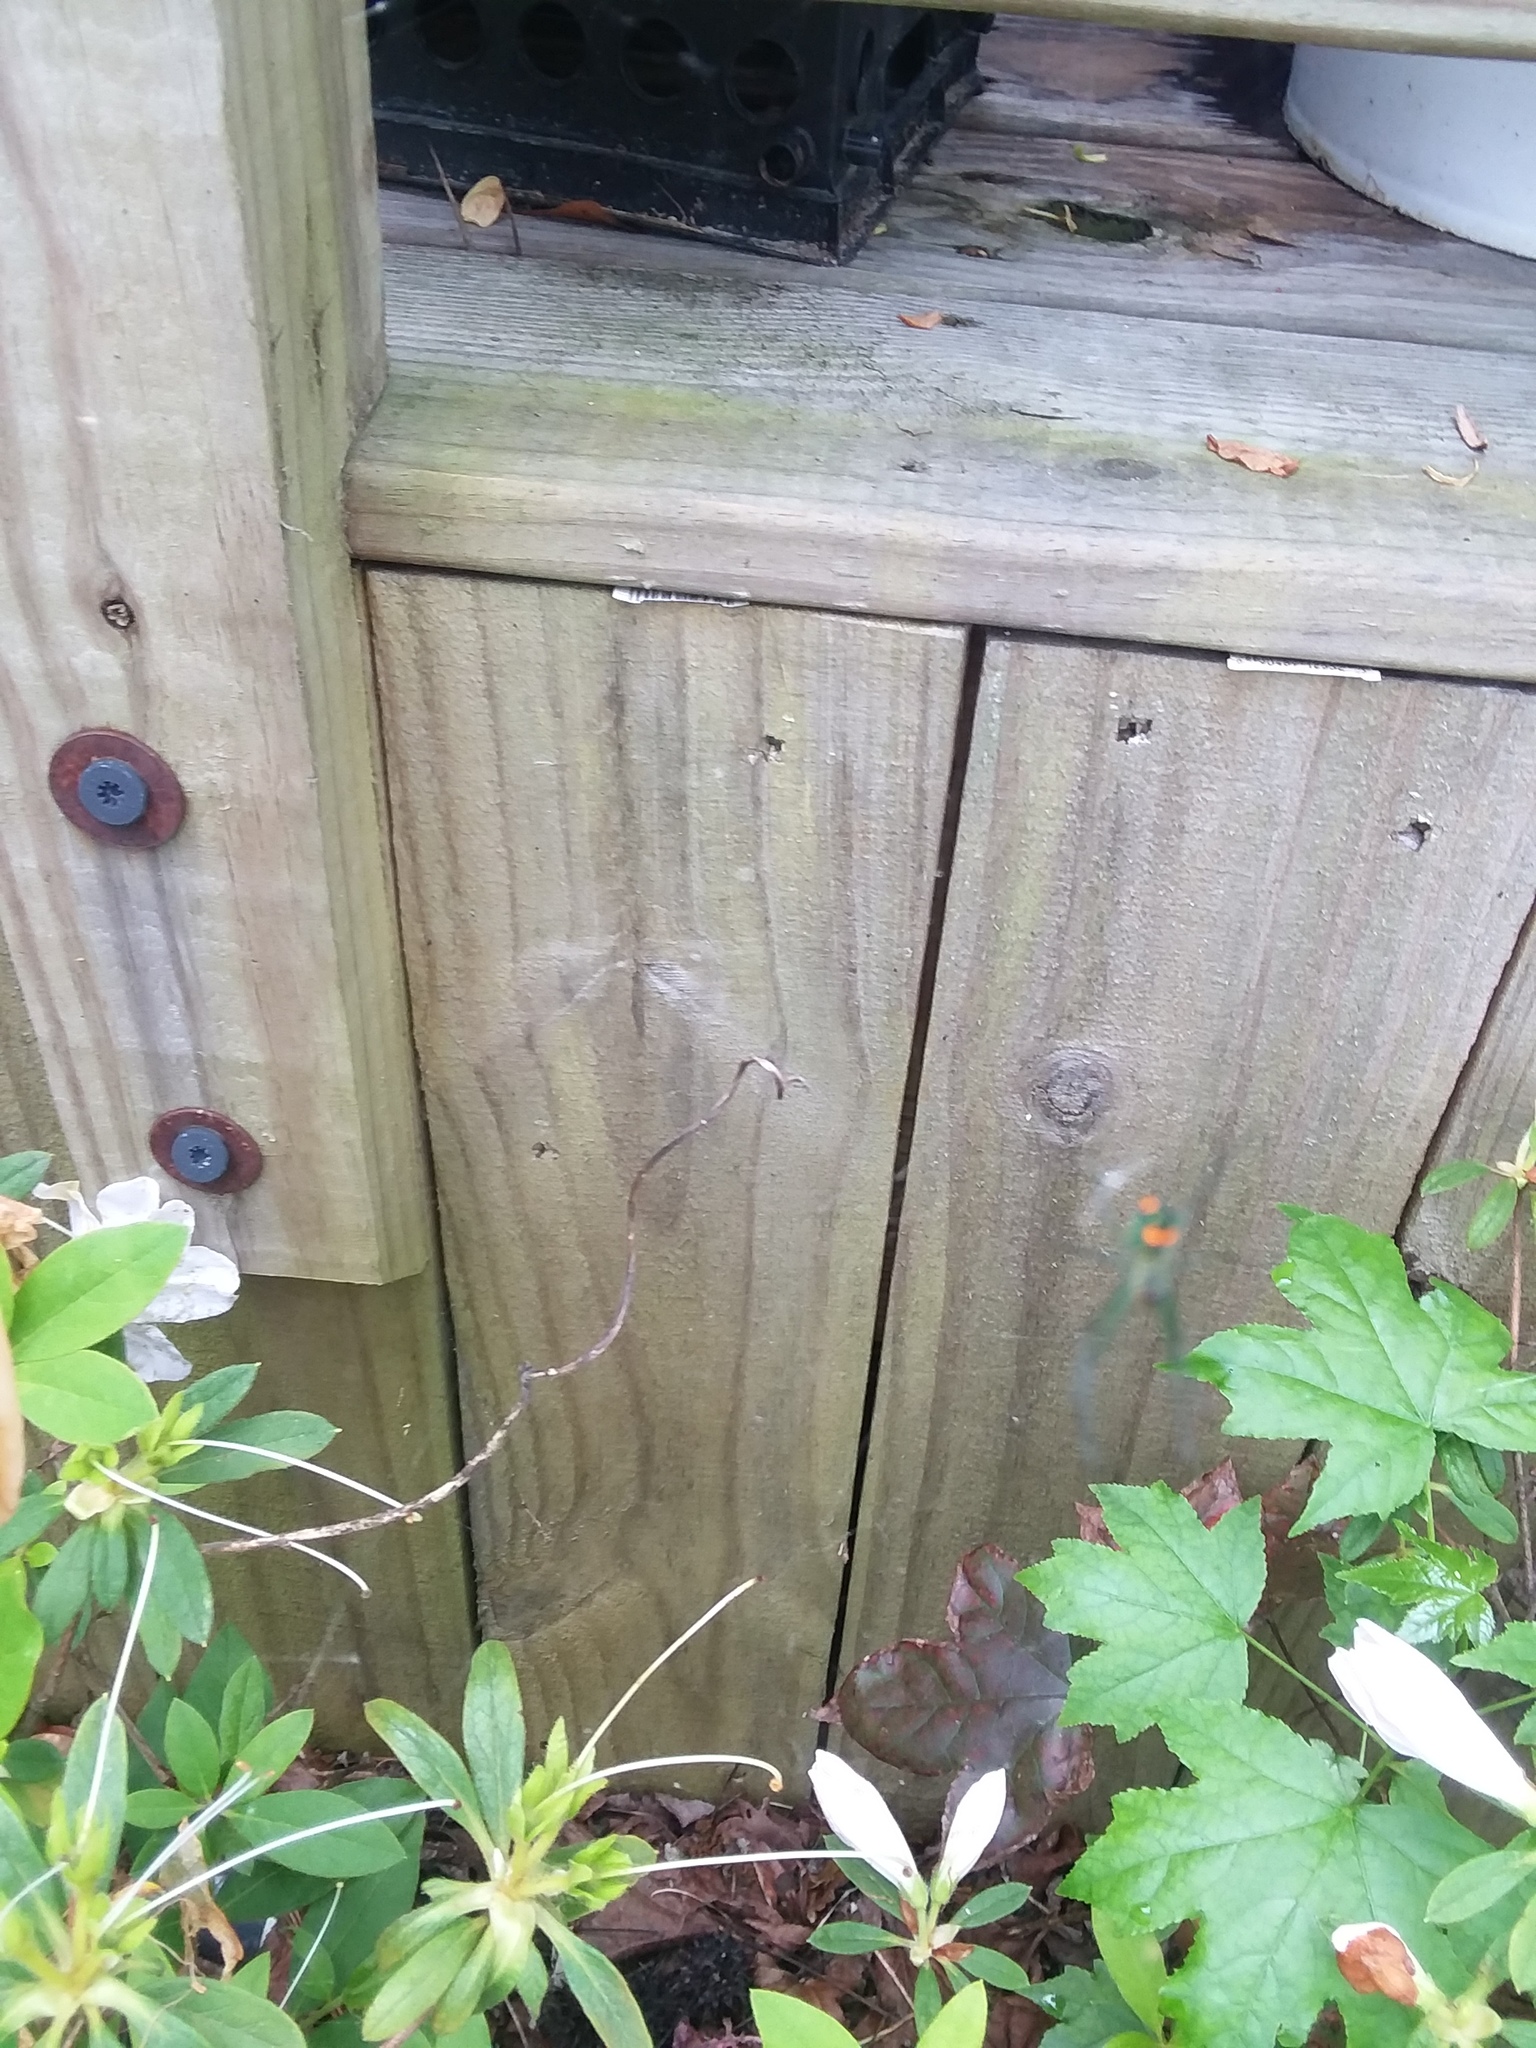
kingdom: Animalia
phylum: Arthropoda
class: Arachnida
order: Araneae
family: Tetragnathidae
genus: Leucauge
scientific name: Leucauge argyrobapta
